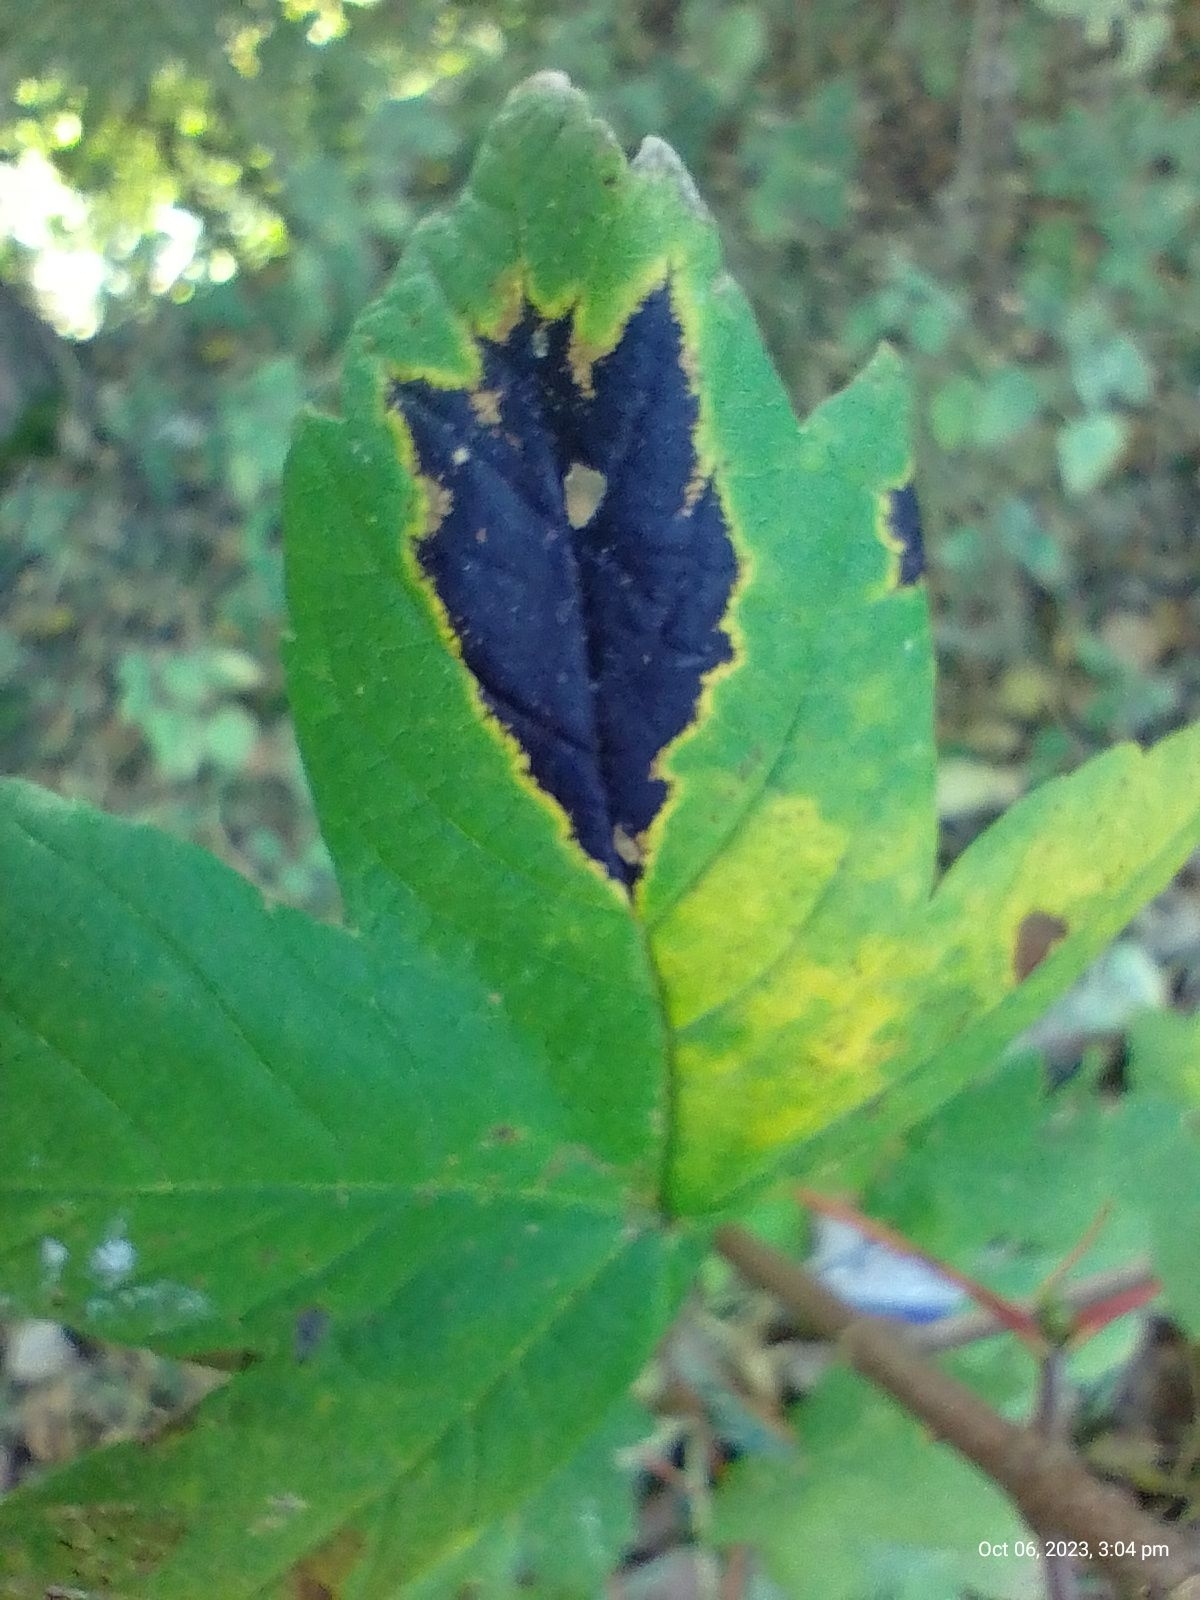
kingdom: Fungi
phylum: Ascomycota
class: Leotiomycetes
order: Rhytismatales
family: Rhytismataceae
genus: Rhytisma
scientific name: Rhytisma acerinum
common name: European tar spot
